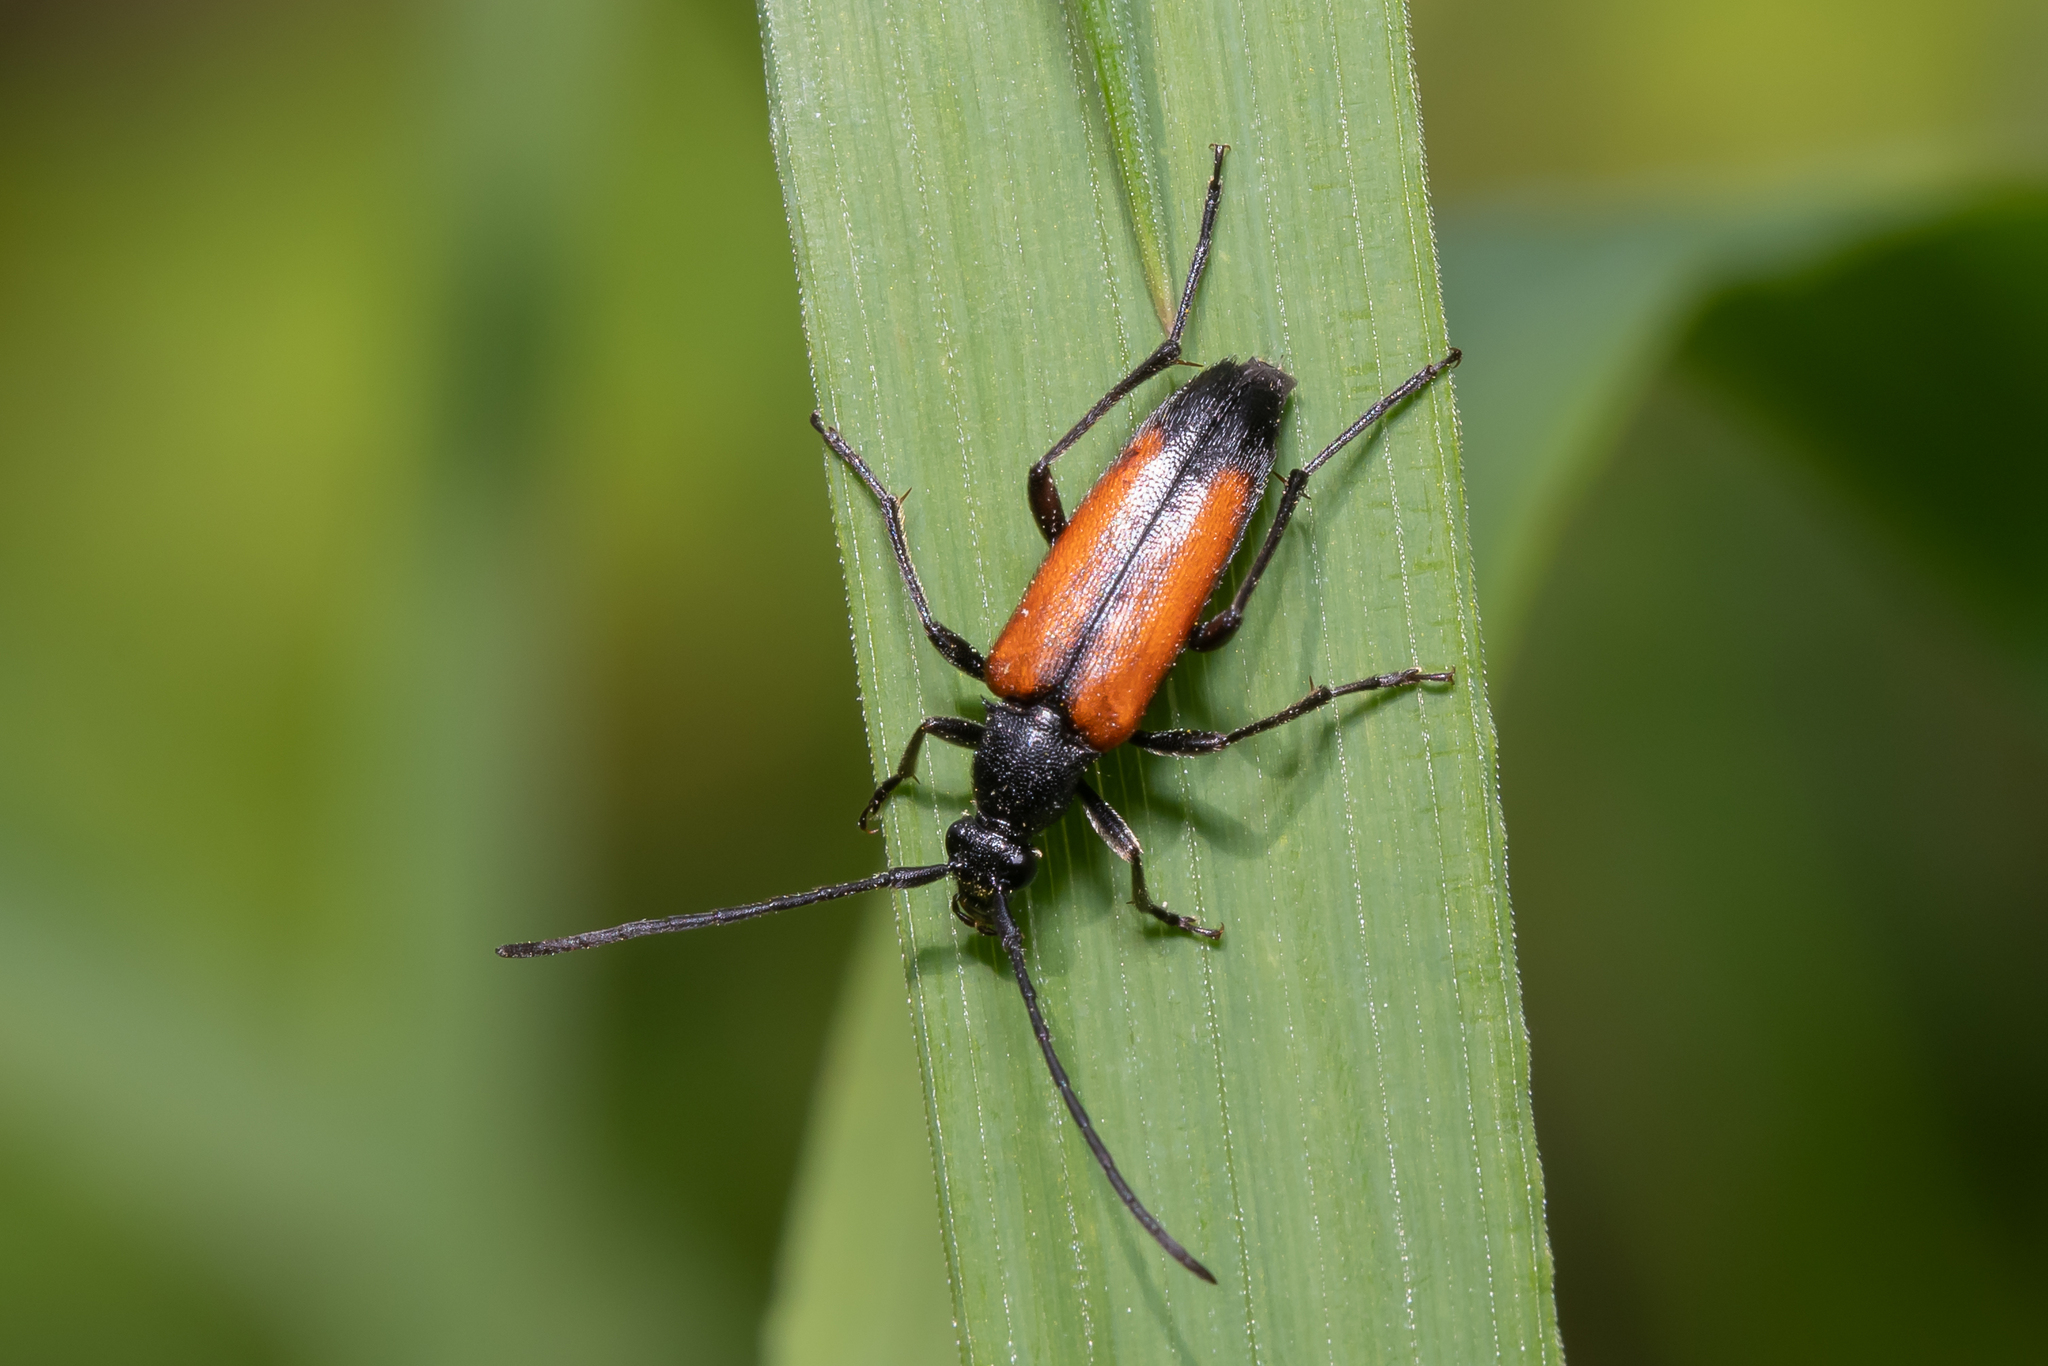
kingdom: Animalia
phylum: Arthropoda
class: Insecta
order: Coleoptera
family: Cerambycidae
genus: Stenurella
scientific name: Stenurella melanura
